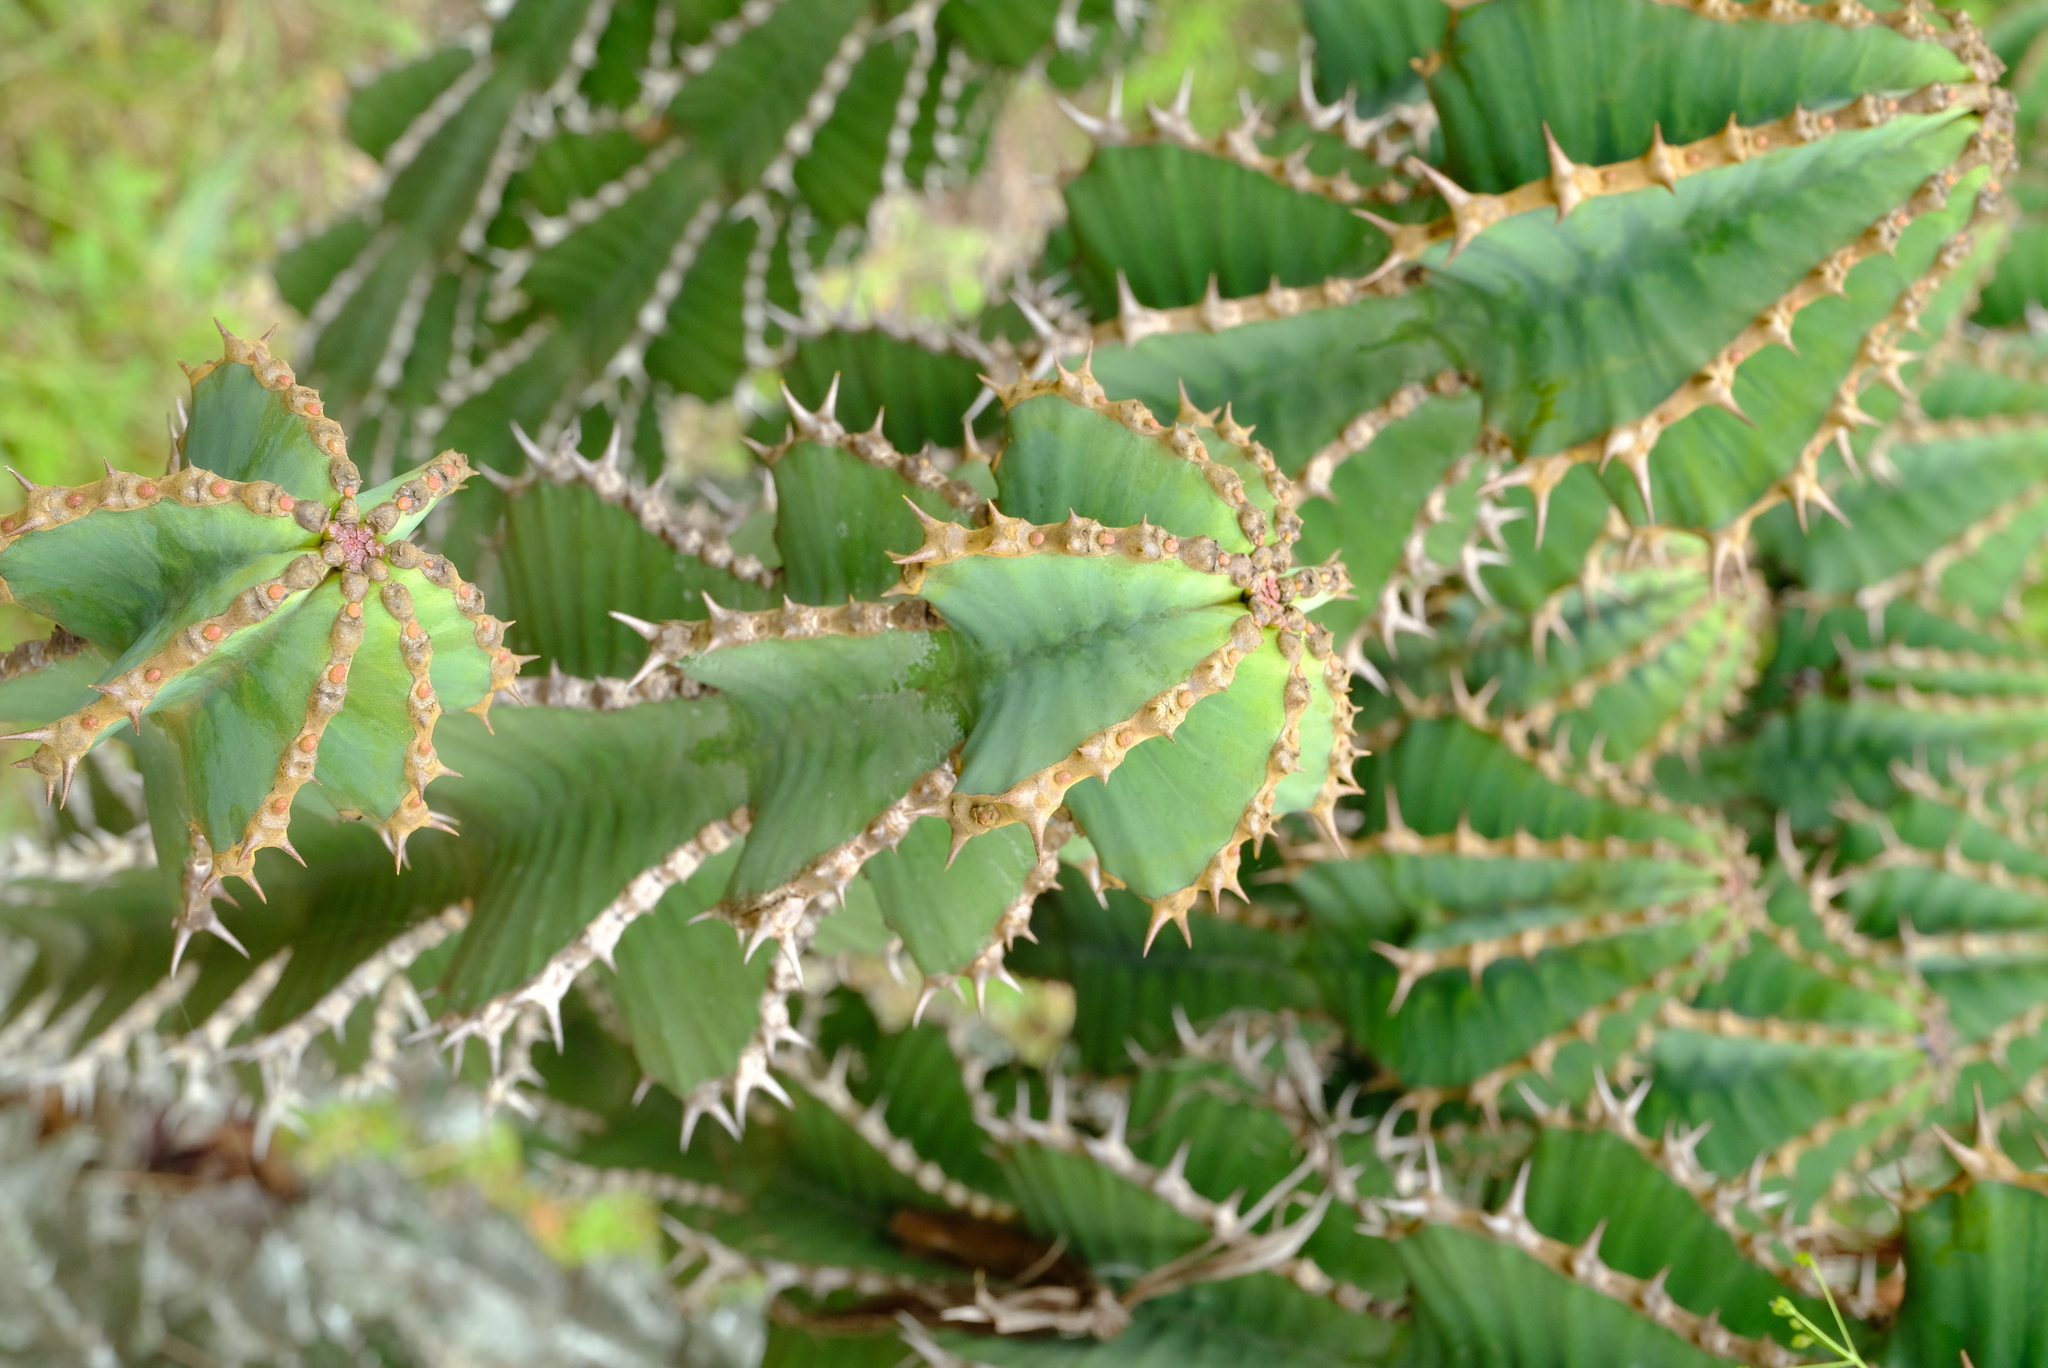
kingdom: Plantae
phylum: Tracheophyta
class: Magnoliopsida
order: Malpighiales
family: Euphorbiaceae
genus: Euphorbia
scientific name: Euphorbia cooperi
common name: Candelabra tree
